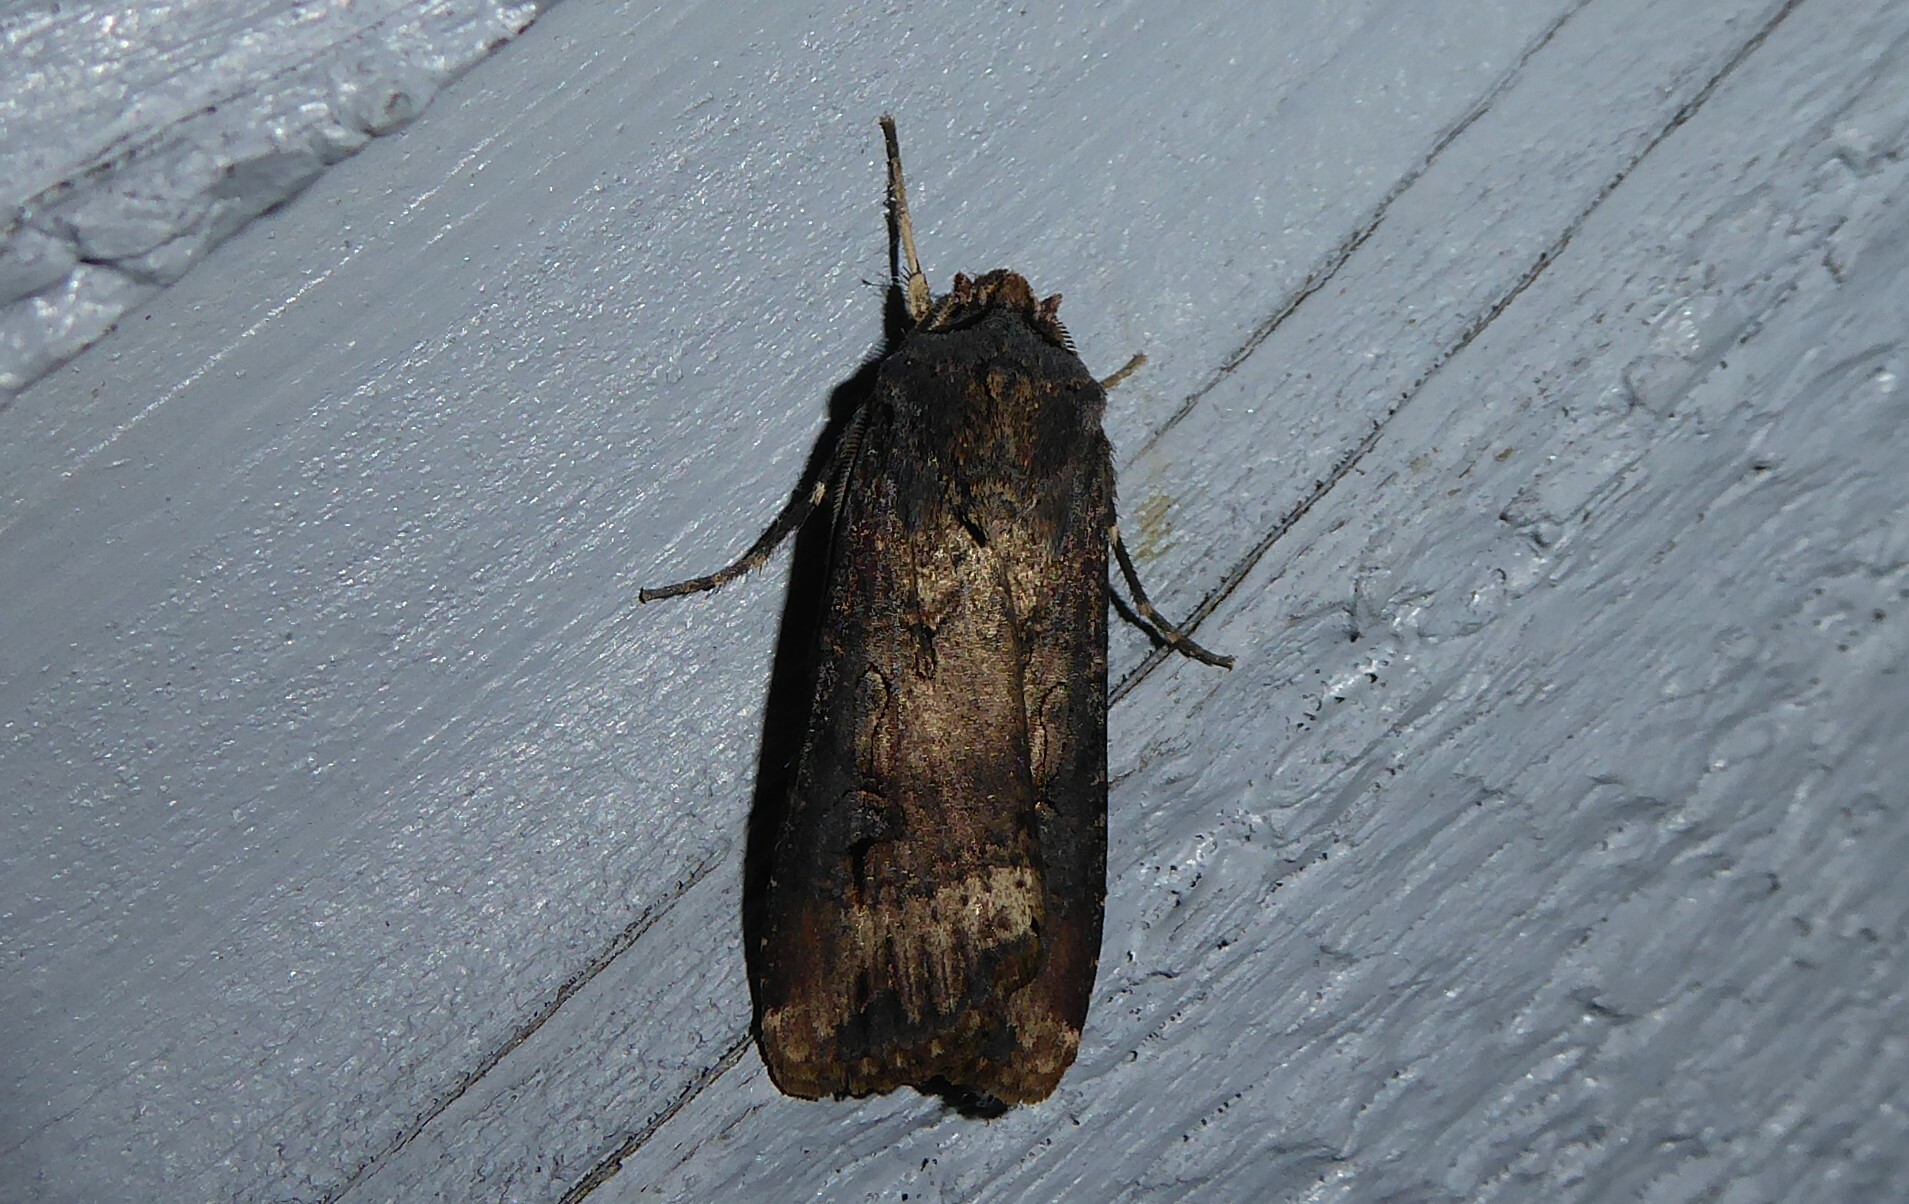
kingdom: Animalia
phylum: Arthropoda
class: Insecta
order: Lepidoptera
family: Noctuidae
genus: Agrotis
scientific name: Agrotis ipsilon
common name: Dark sword-grass
